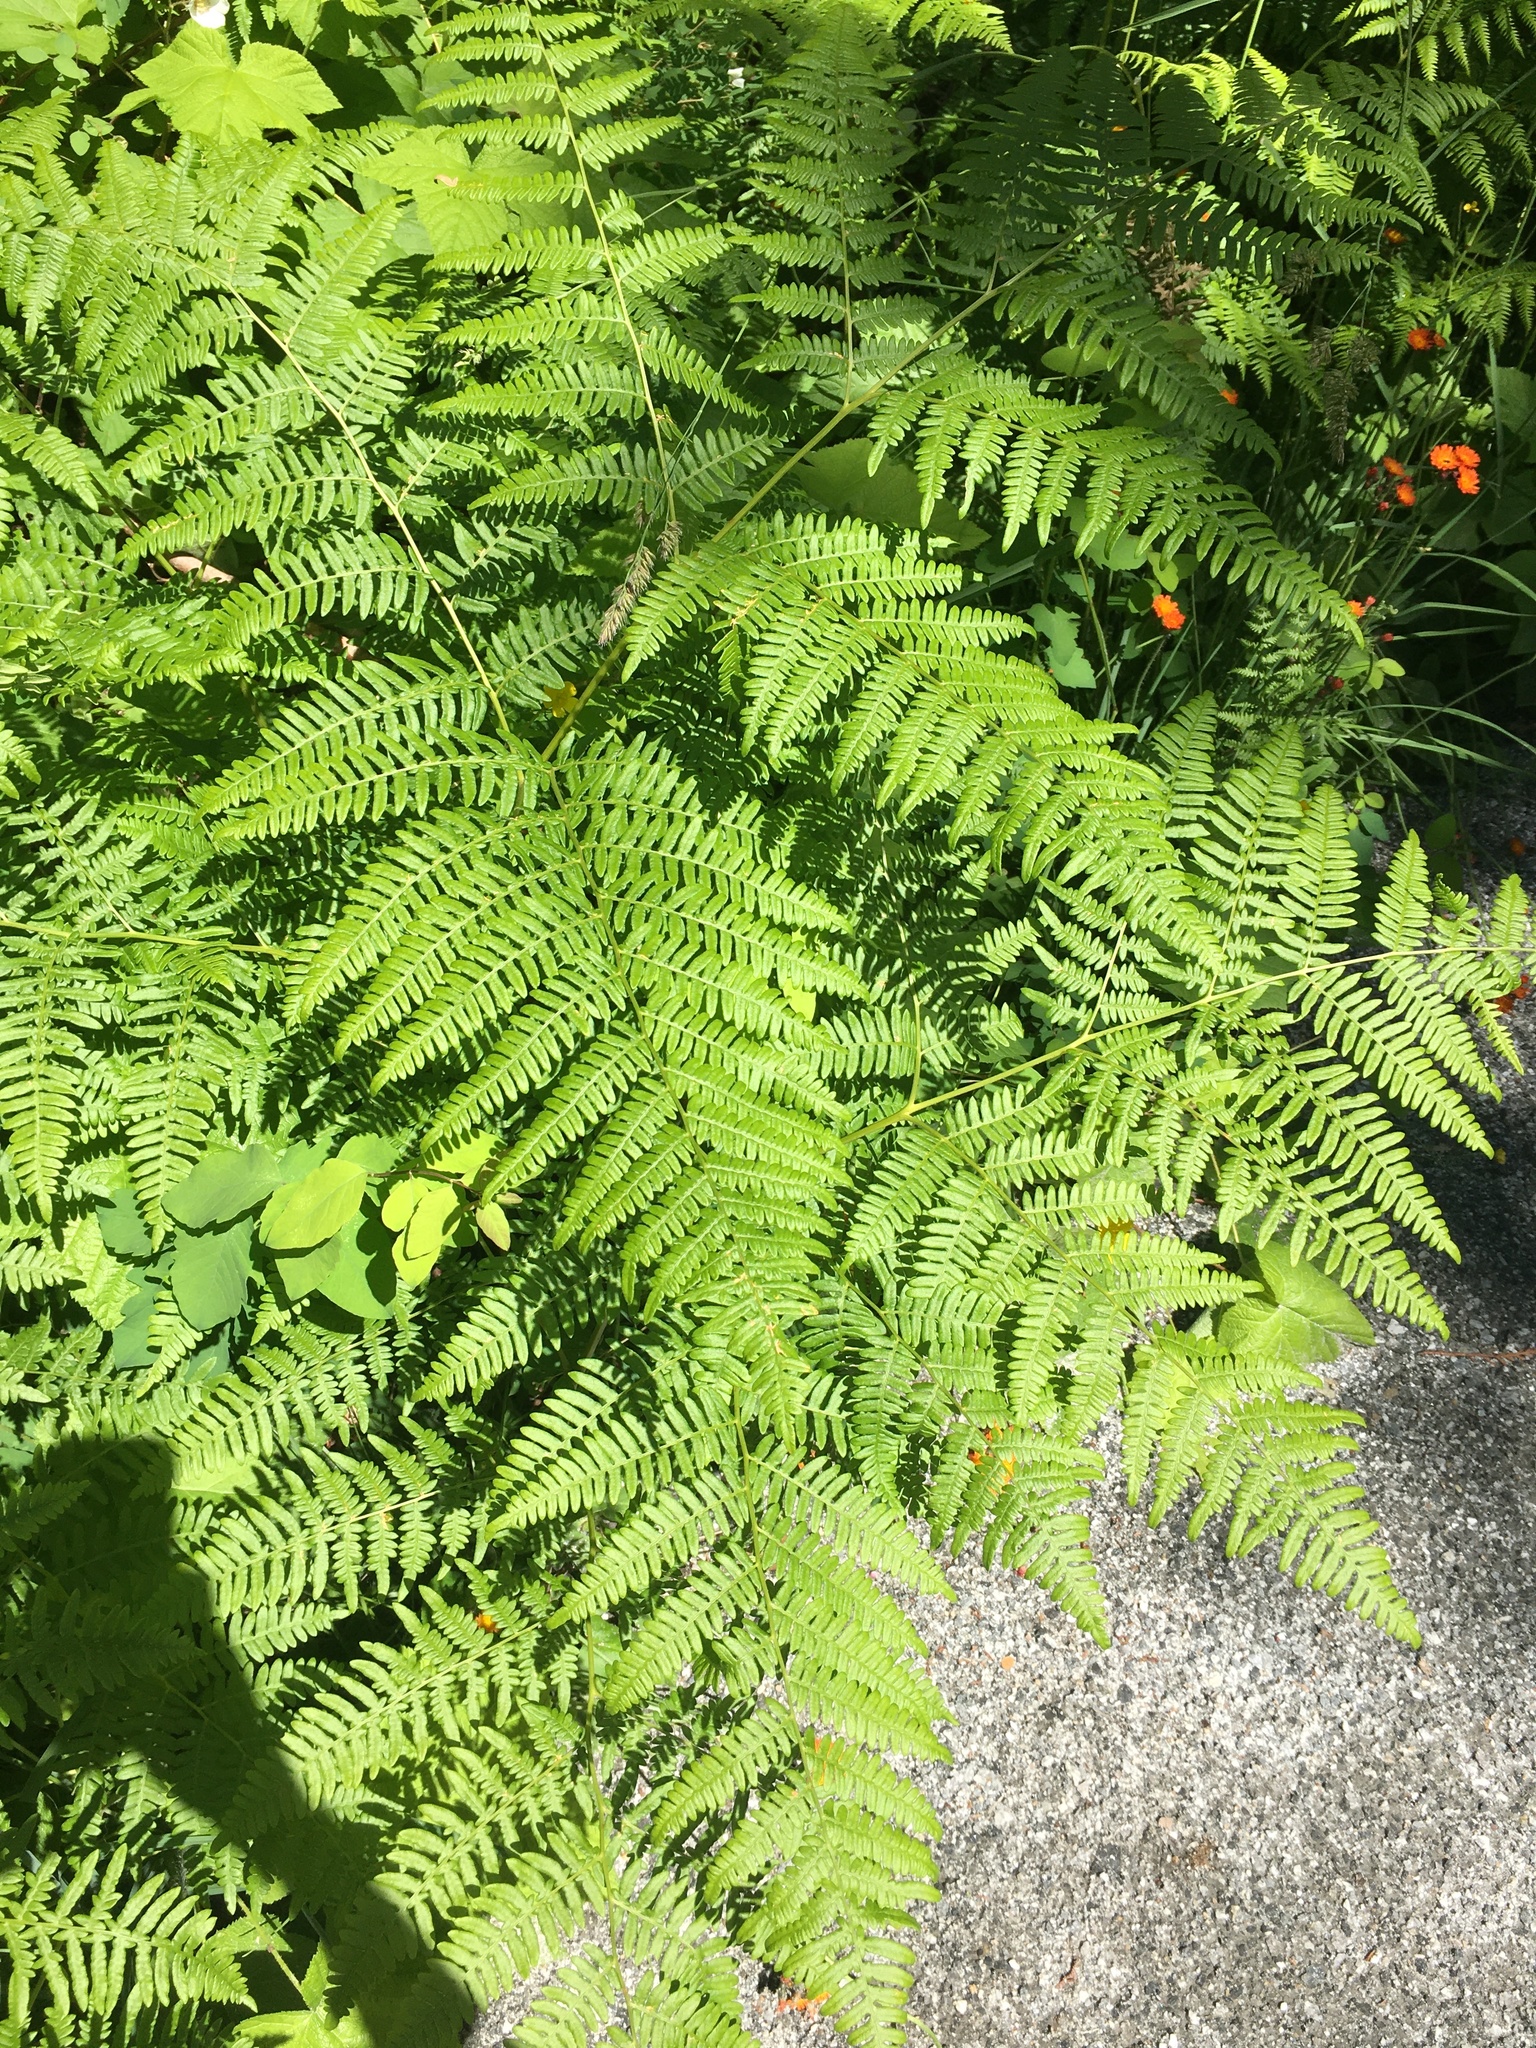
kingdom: Plantae
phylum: Tracheophyta
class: Polypodiopsida
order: Polypodiales
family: Dennstaedtiaceae
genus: Pteridium
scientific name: Pteridium aquilinum
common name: Bracken
